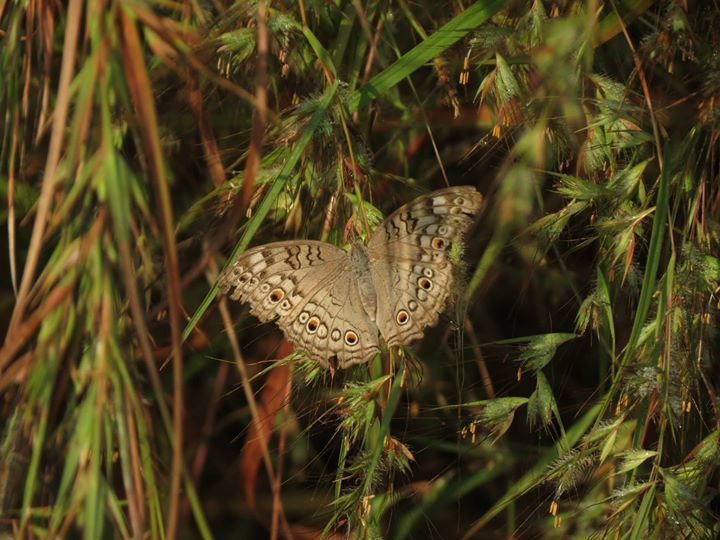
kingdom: Animalia
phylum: Arthropoda
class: Insecta
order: Lepidoptera
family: Nymphalidae
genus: Junonia
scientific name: Junonia atlites
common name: Grey pansy
